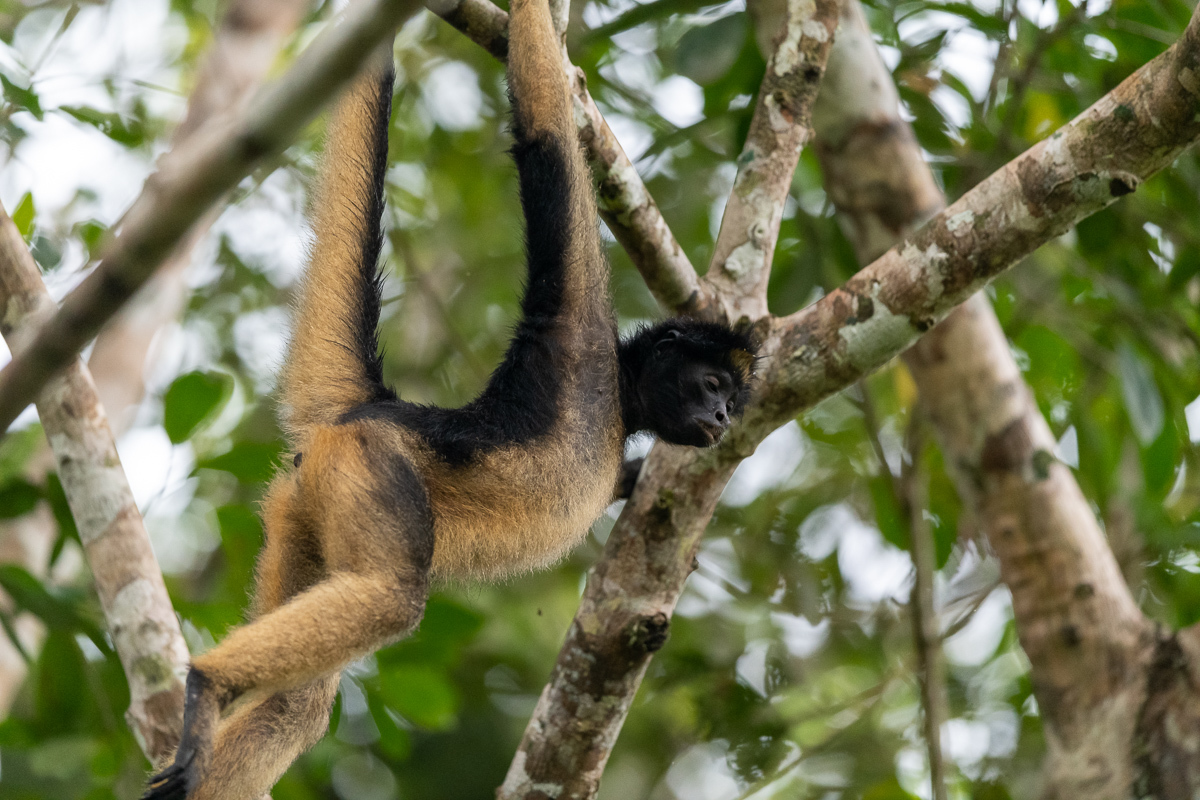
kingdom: Animalia
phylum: Chordata
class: Mammalia
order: Primates
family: Atelidae
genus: Ateles
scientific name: Ateles belzebuth
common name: White-fronted spider monkey
